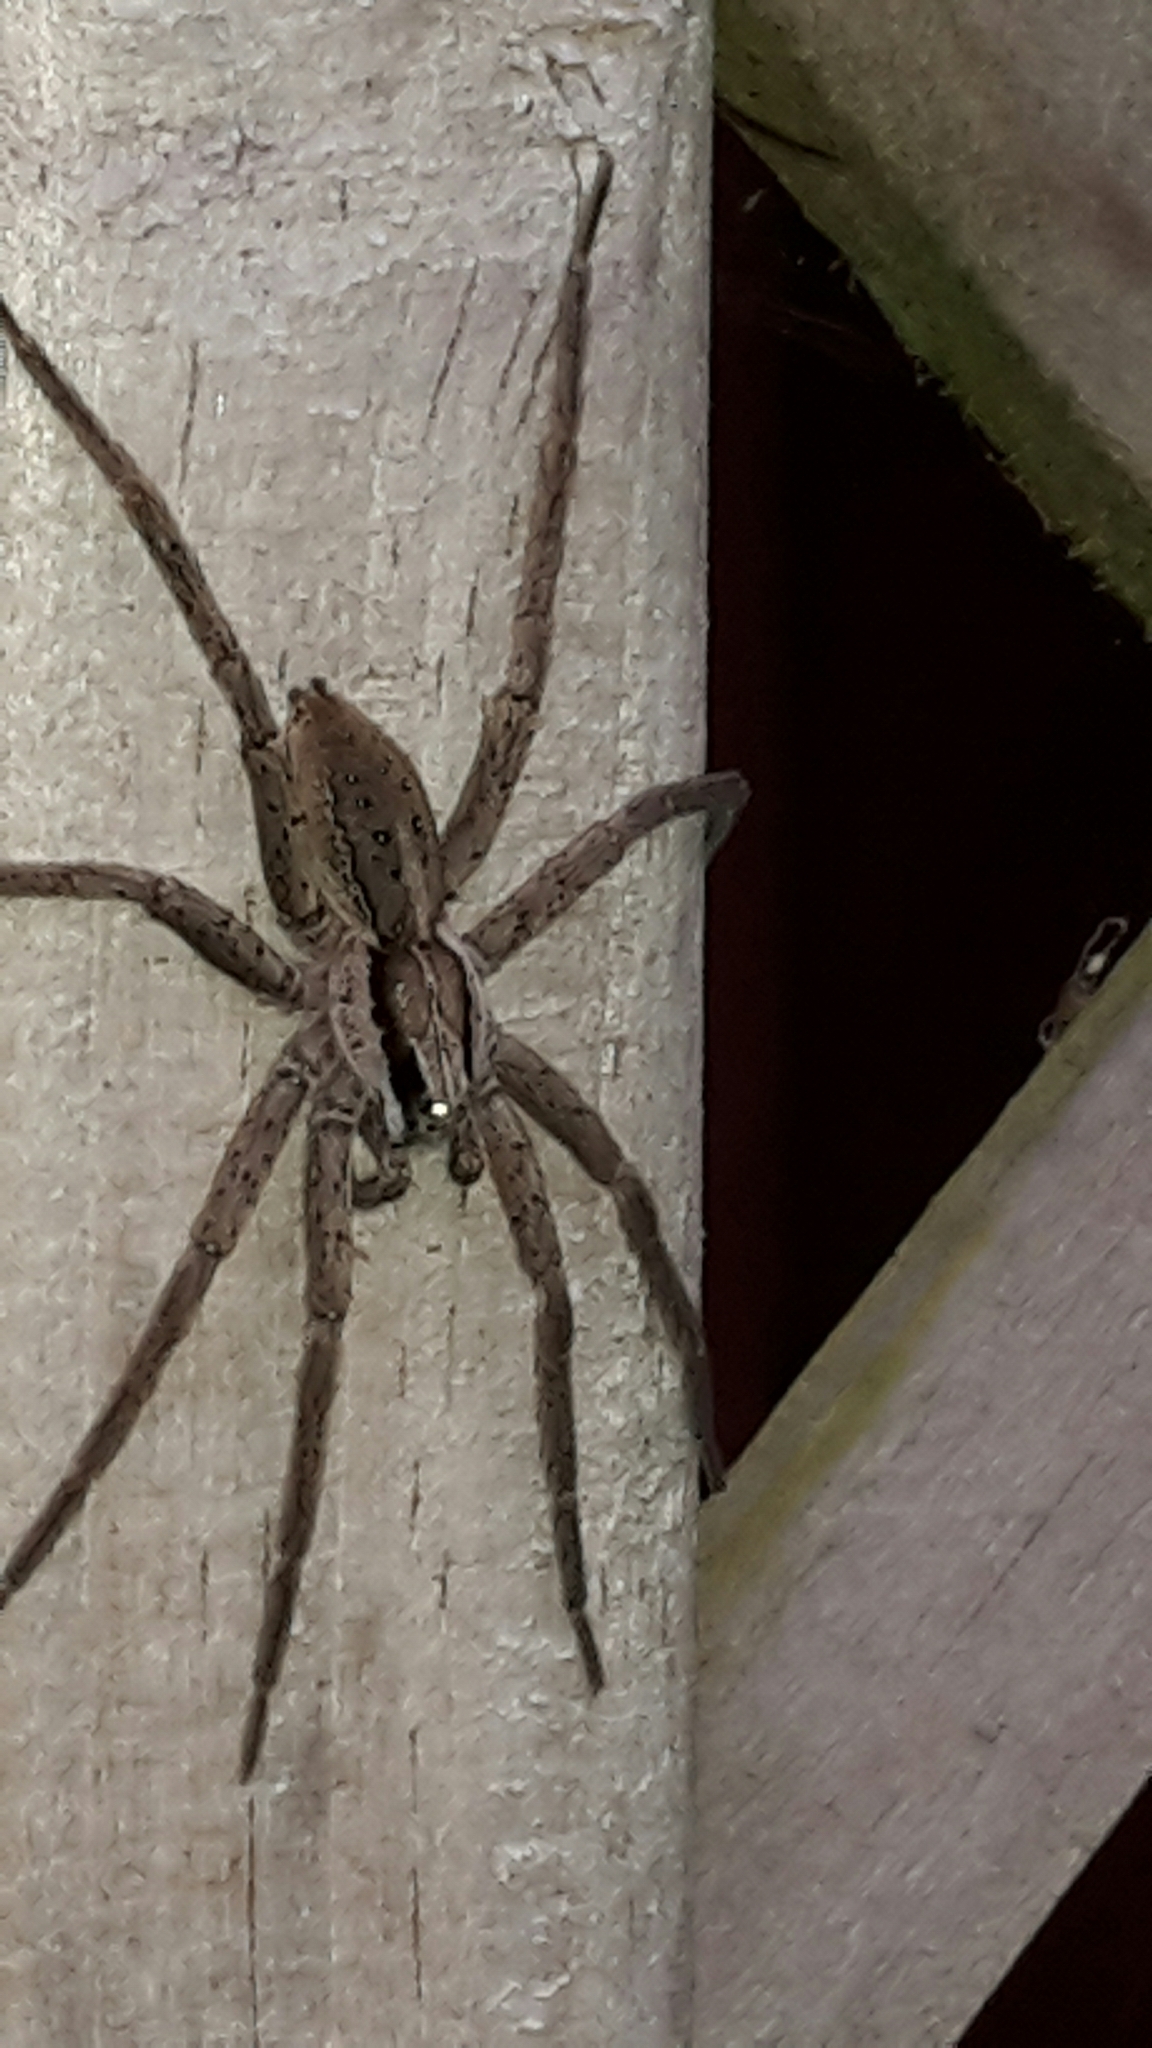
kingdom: Animalia
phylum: Arthropoda
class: Arachnida
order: Araneae
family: Pisauridae
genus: Dolomedes
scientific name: Dolomedes minor
